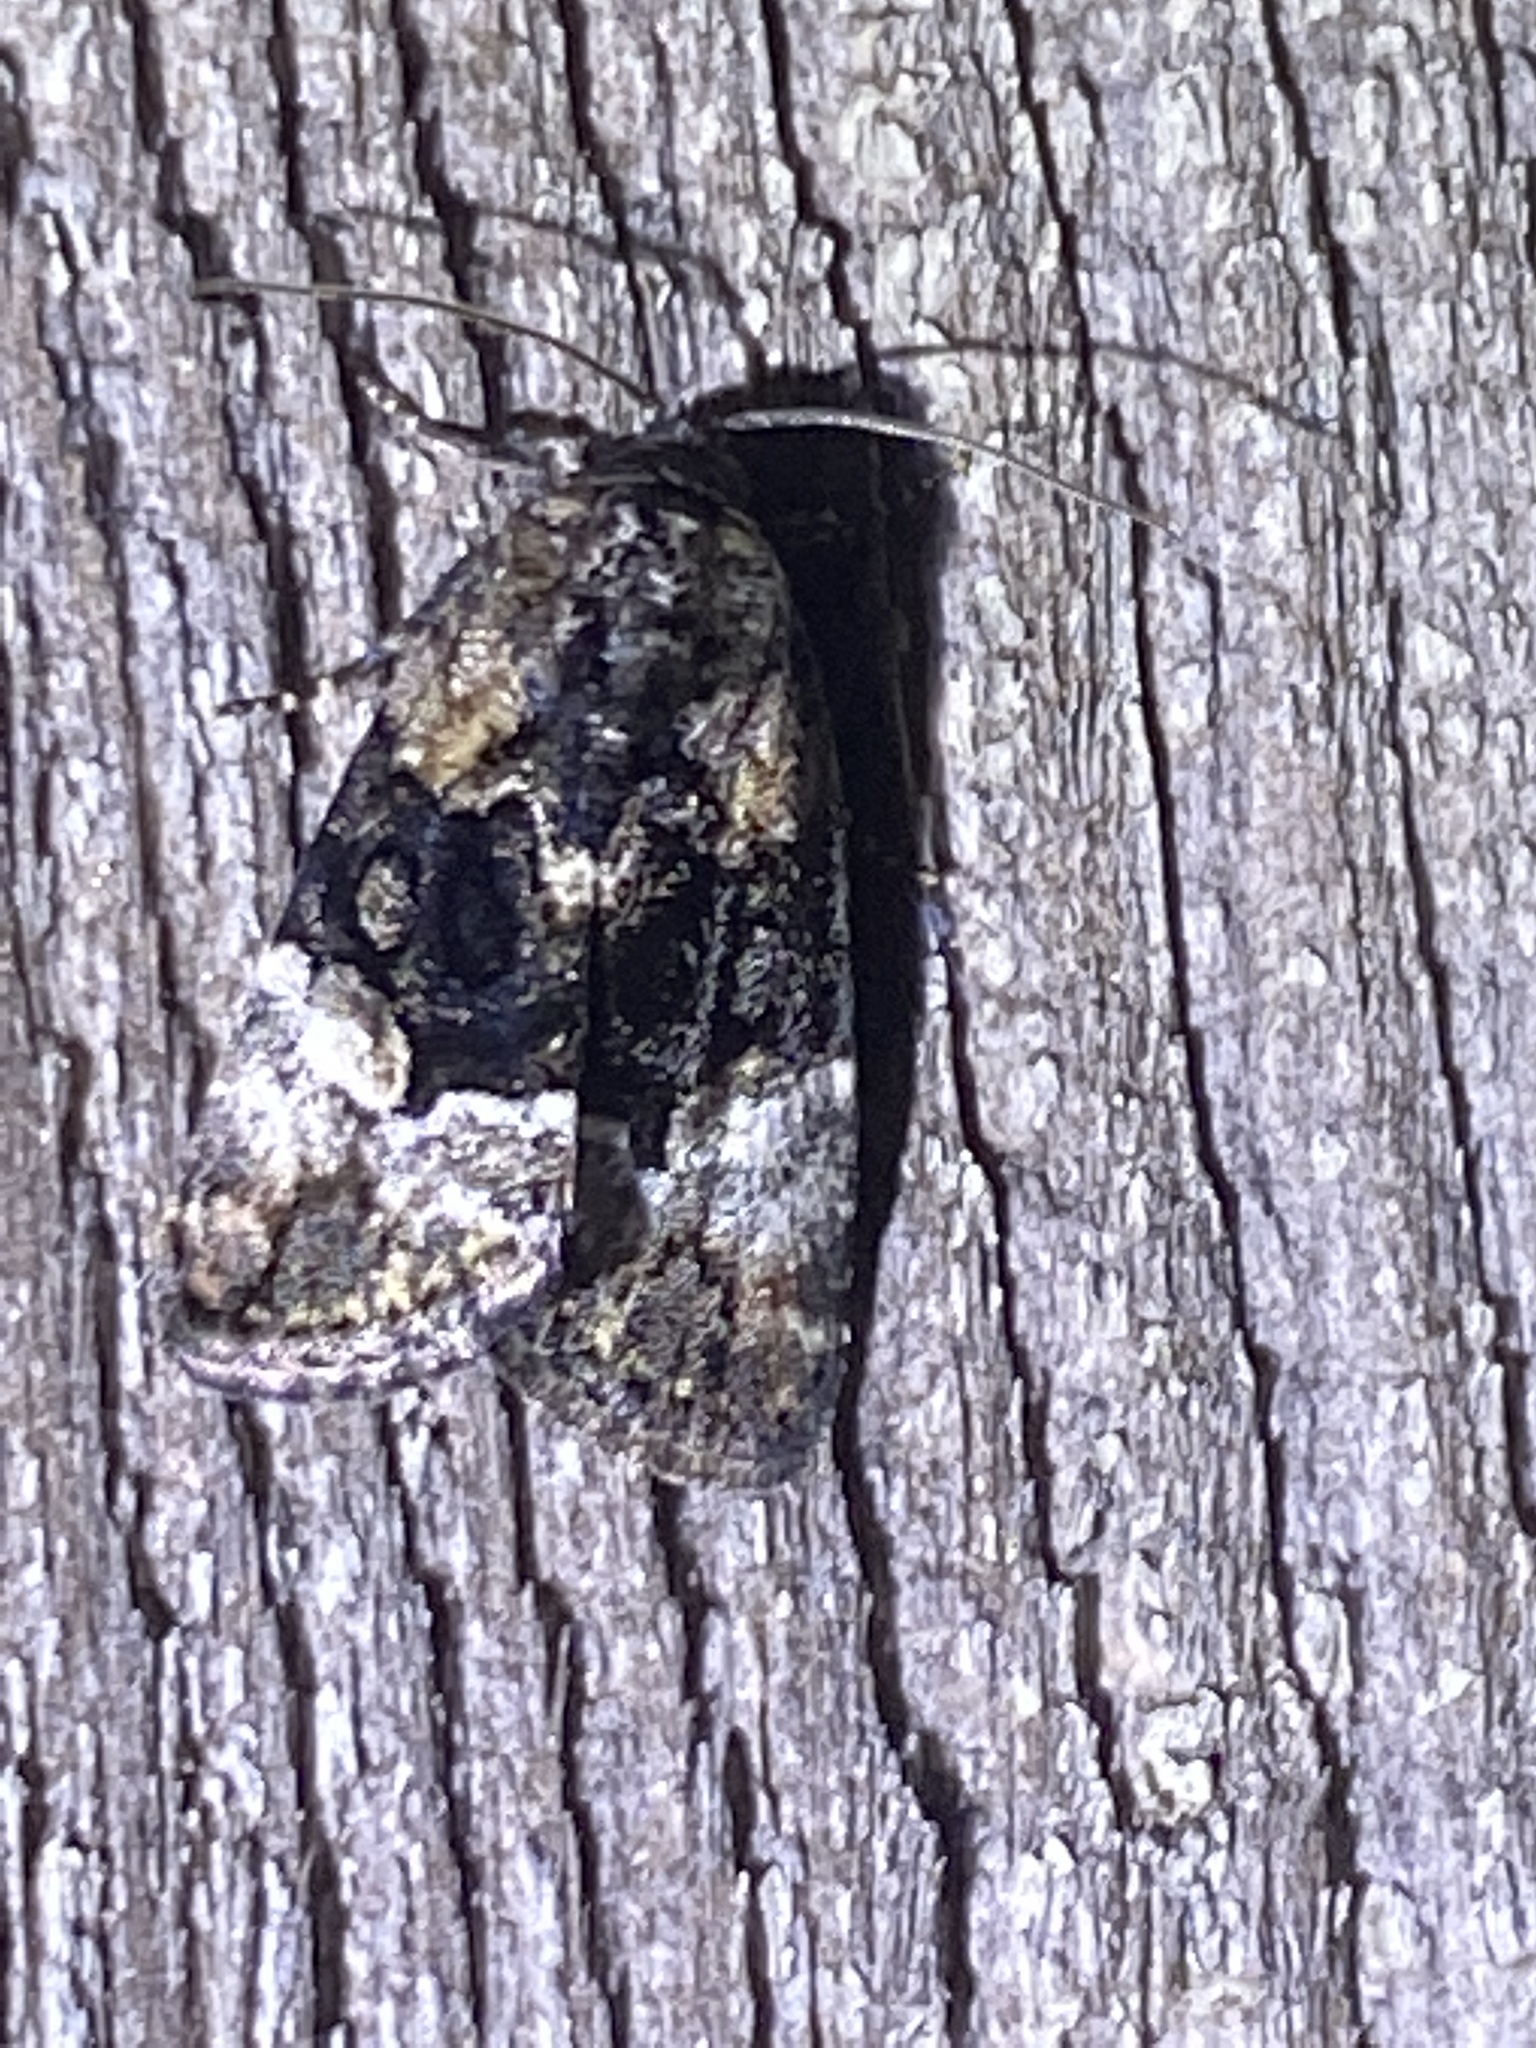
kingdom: Animalia
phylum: Arthropoda
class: Insecta
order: Lepidoptera
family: Noctuidae
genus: Elaphria
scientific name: Elaphria georgei
